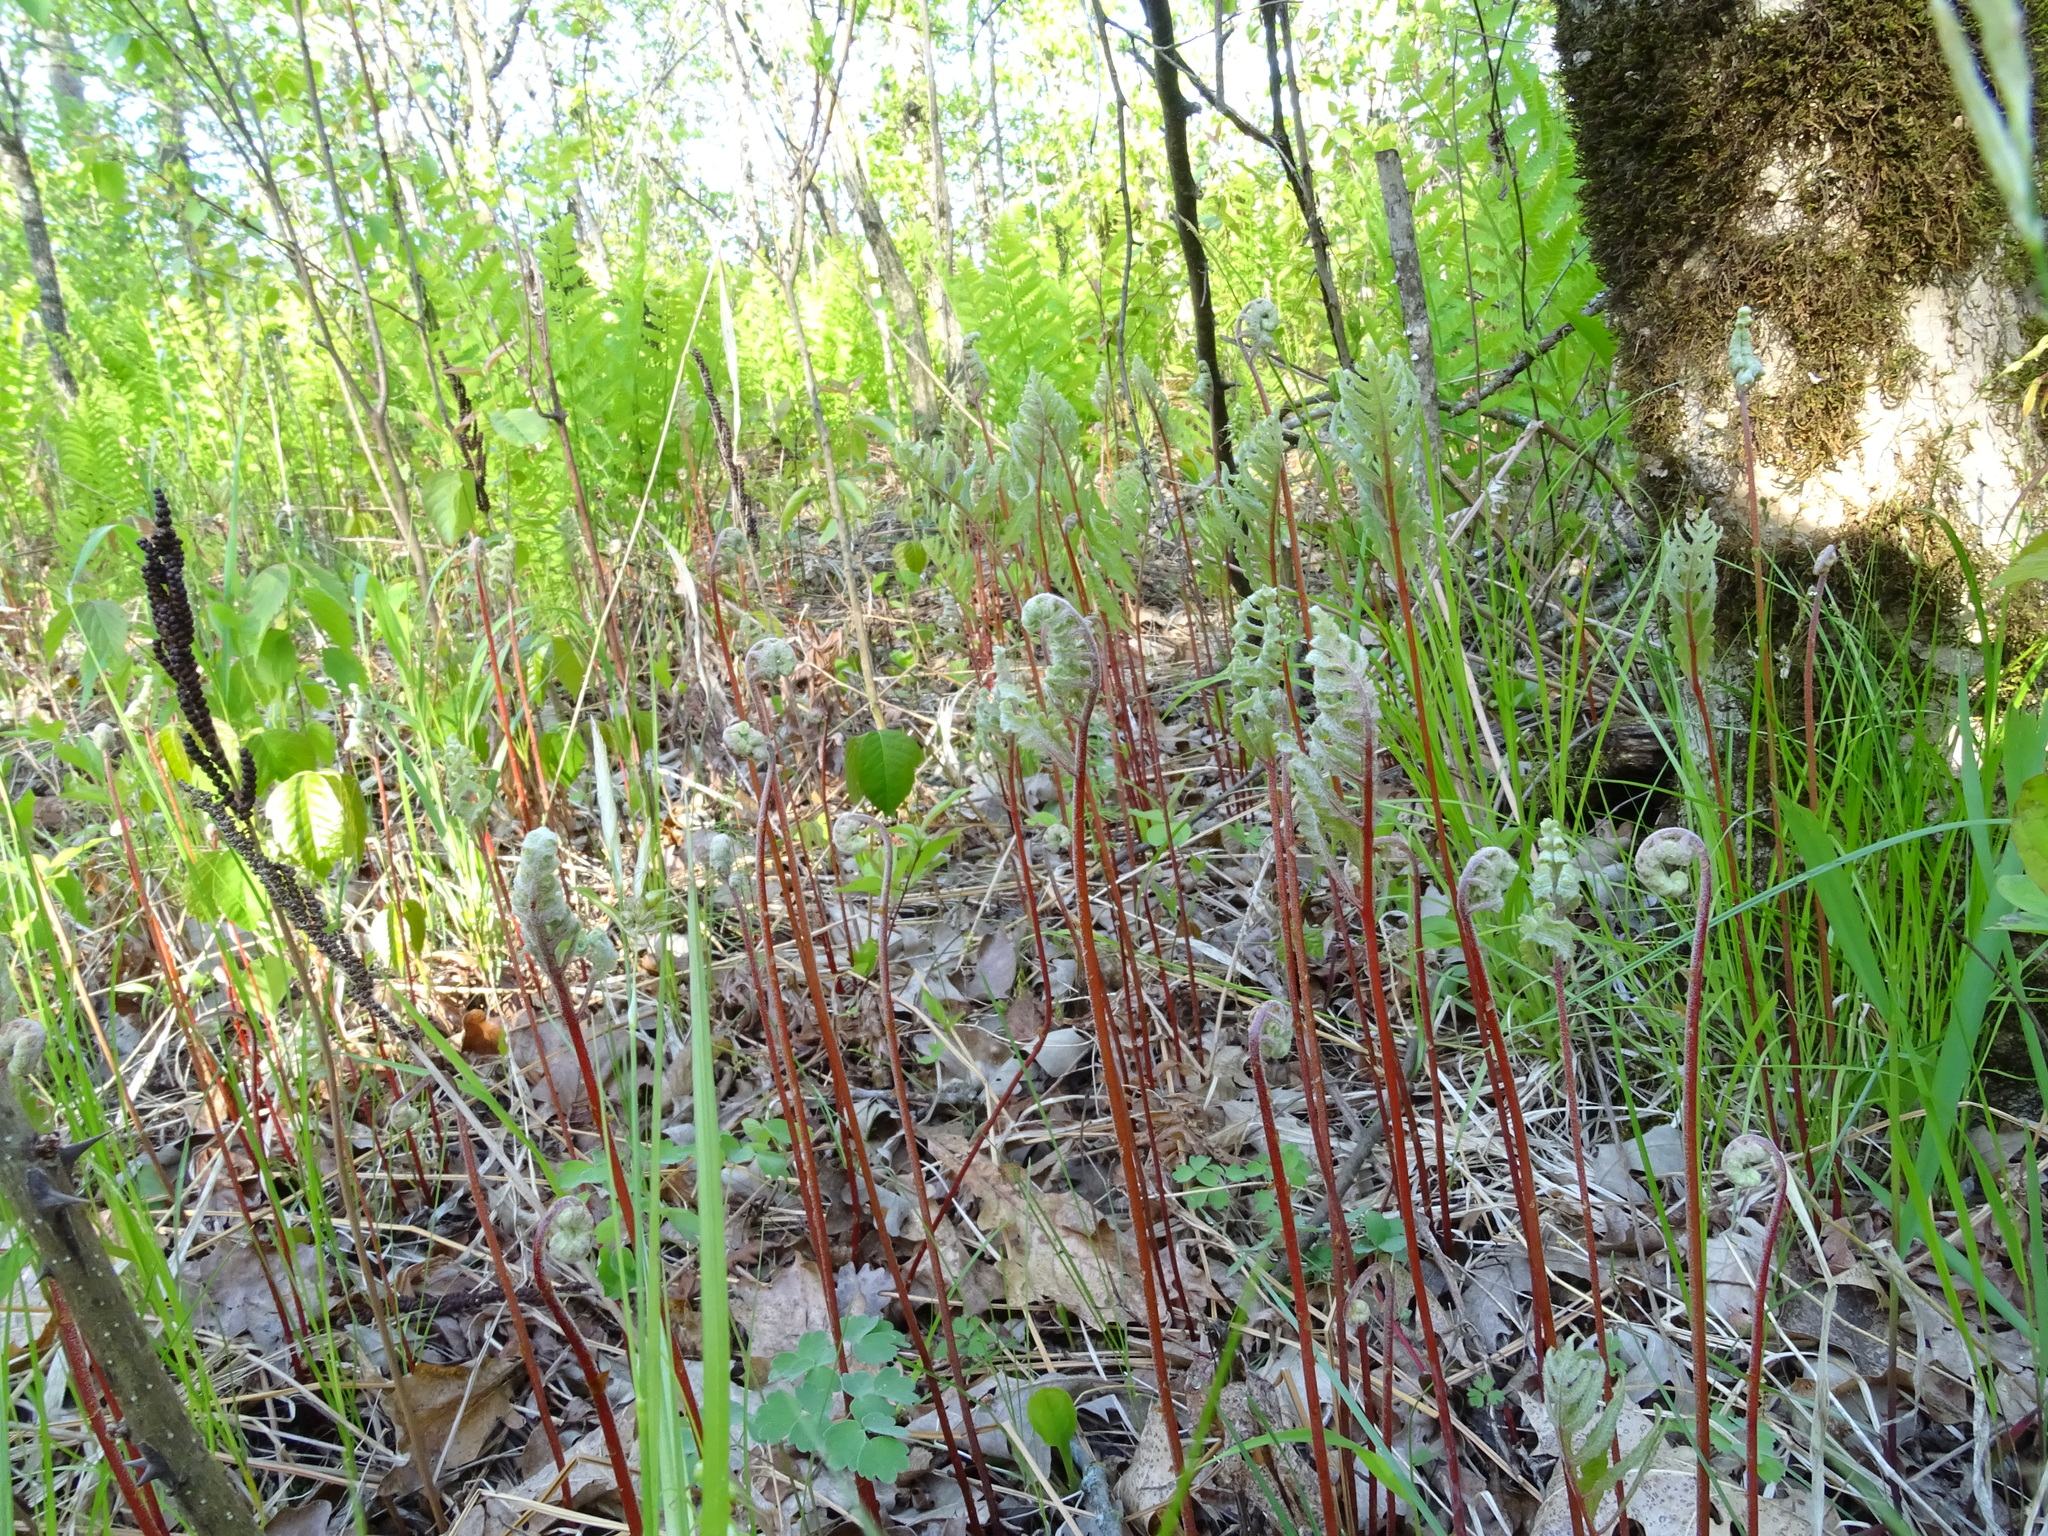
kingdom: Plantae
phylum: Tracheophyta
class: Polypodiopsida
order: Polypodiales
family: Onocleaceae
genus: Onoclea
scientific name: Onoclea sensibilis
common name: Sensitive fern
